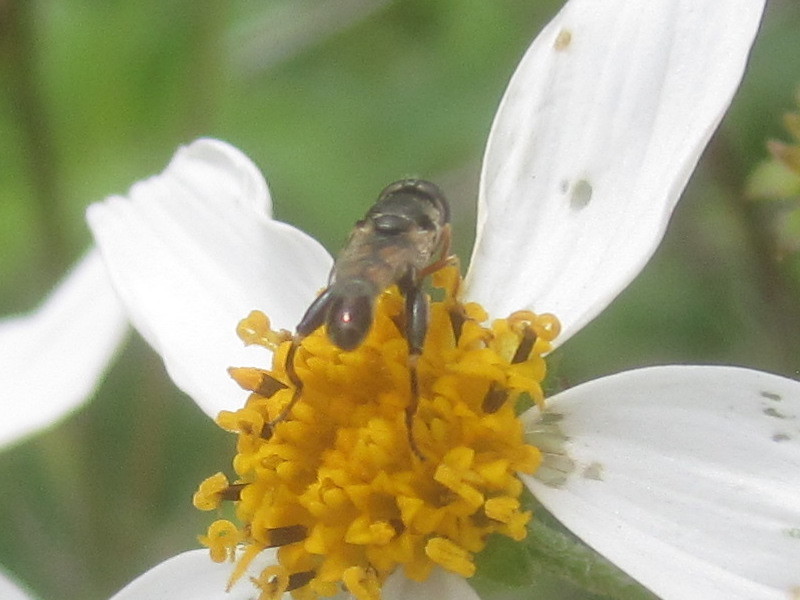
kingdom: Animalia
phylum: Arthropoda
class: Insecta
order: Diptera
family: Syrphidae
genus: Syritta
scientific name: Syritta flaviventris
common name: Syrphid fly
